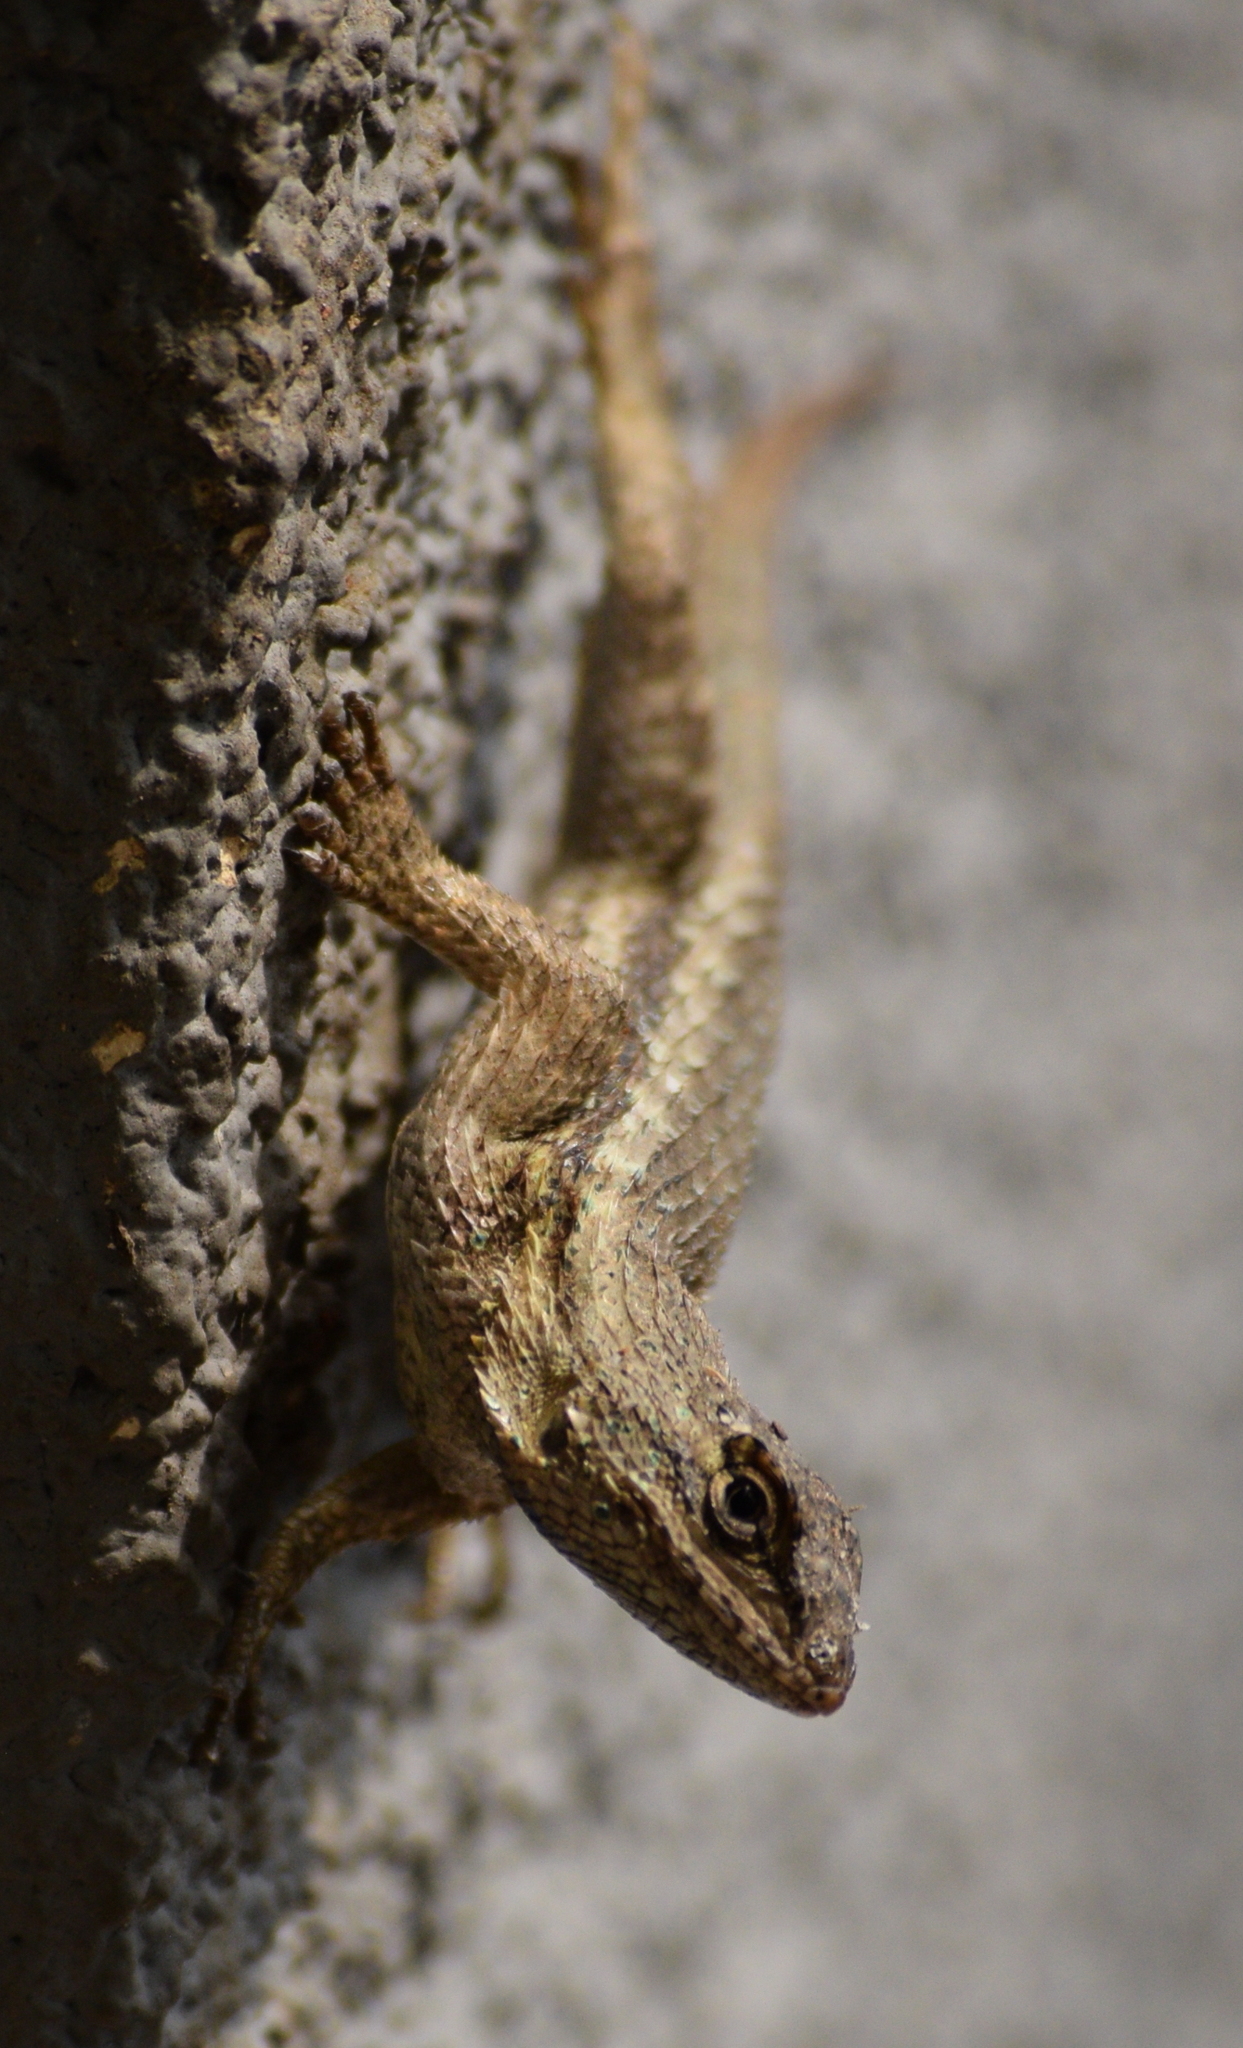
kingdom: Animalia
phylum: Chordata
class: Squamata
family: Phrynosomatidae
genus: Sceloporus
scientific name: Sceloporus occidentalis
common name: Western fence lizard
